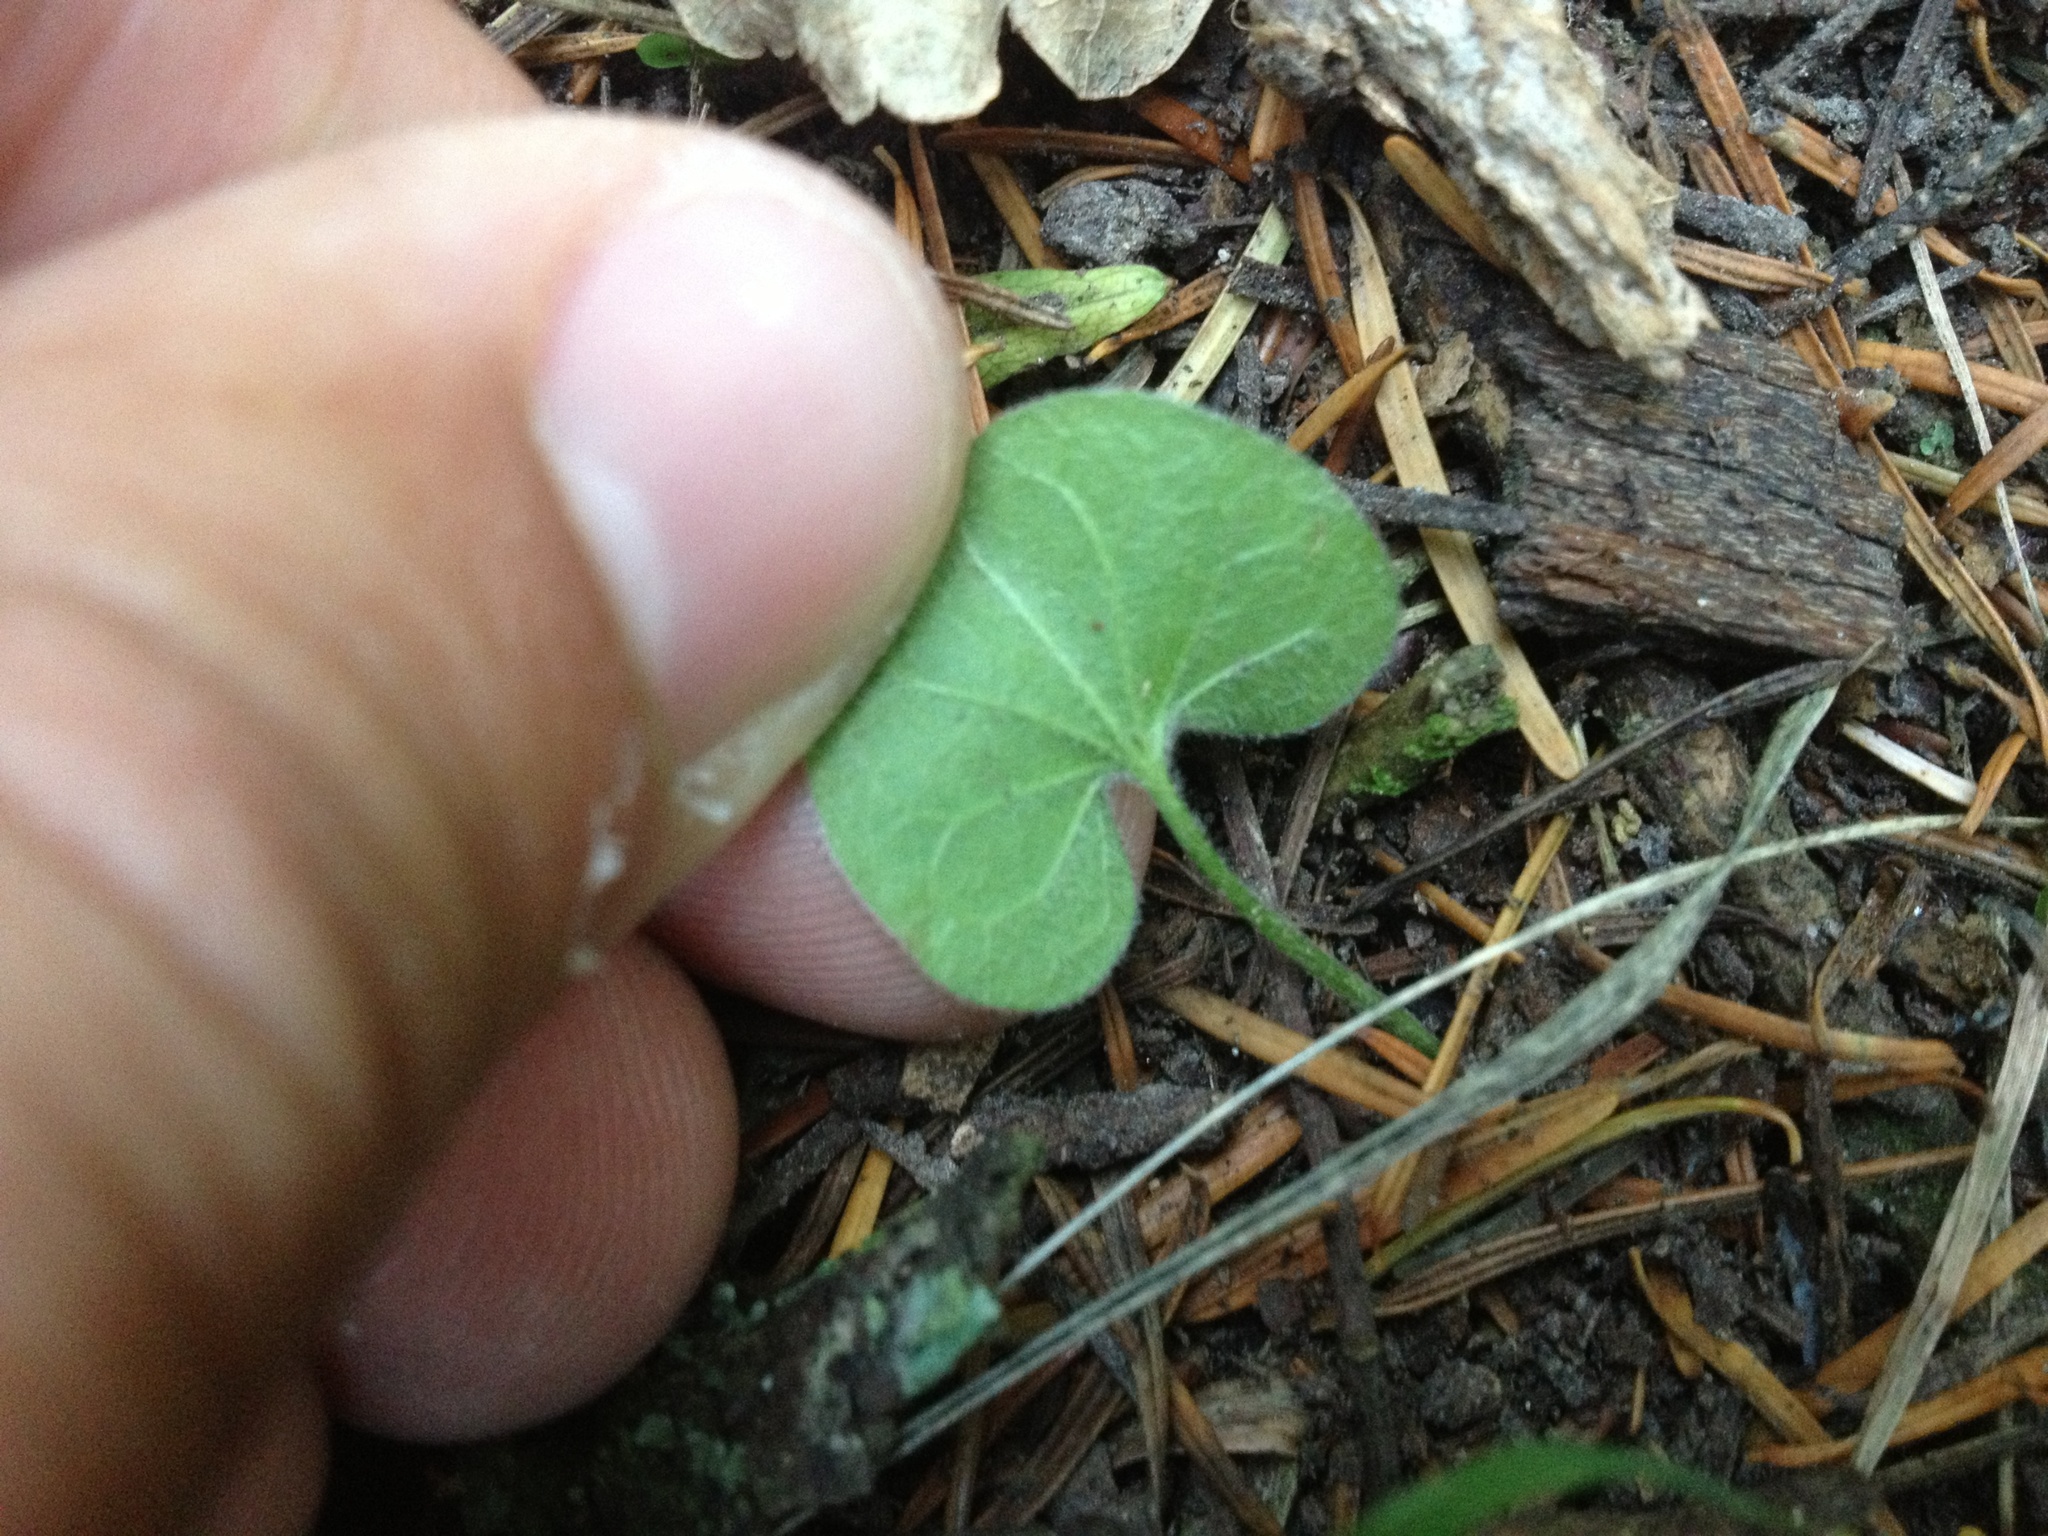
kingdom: Plantae
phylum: Tracheophyta
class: Magnoliopsida
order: Solanales
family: Convolvulaceae
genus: Dichondra
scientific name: Dichondra repens
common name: Kidneyweed
